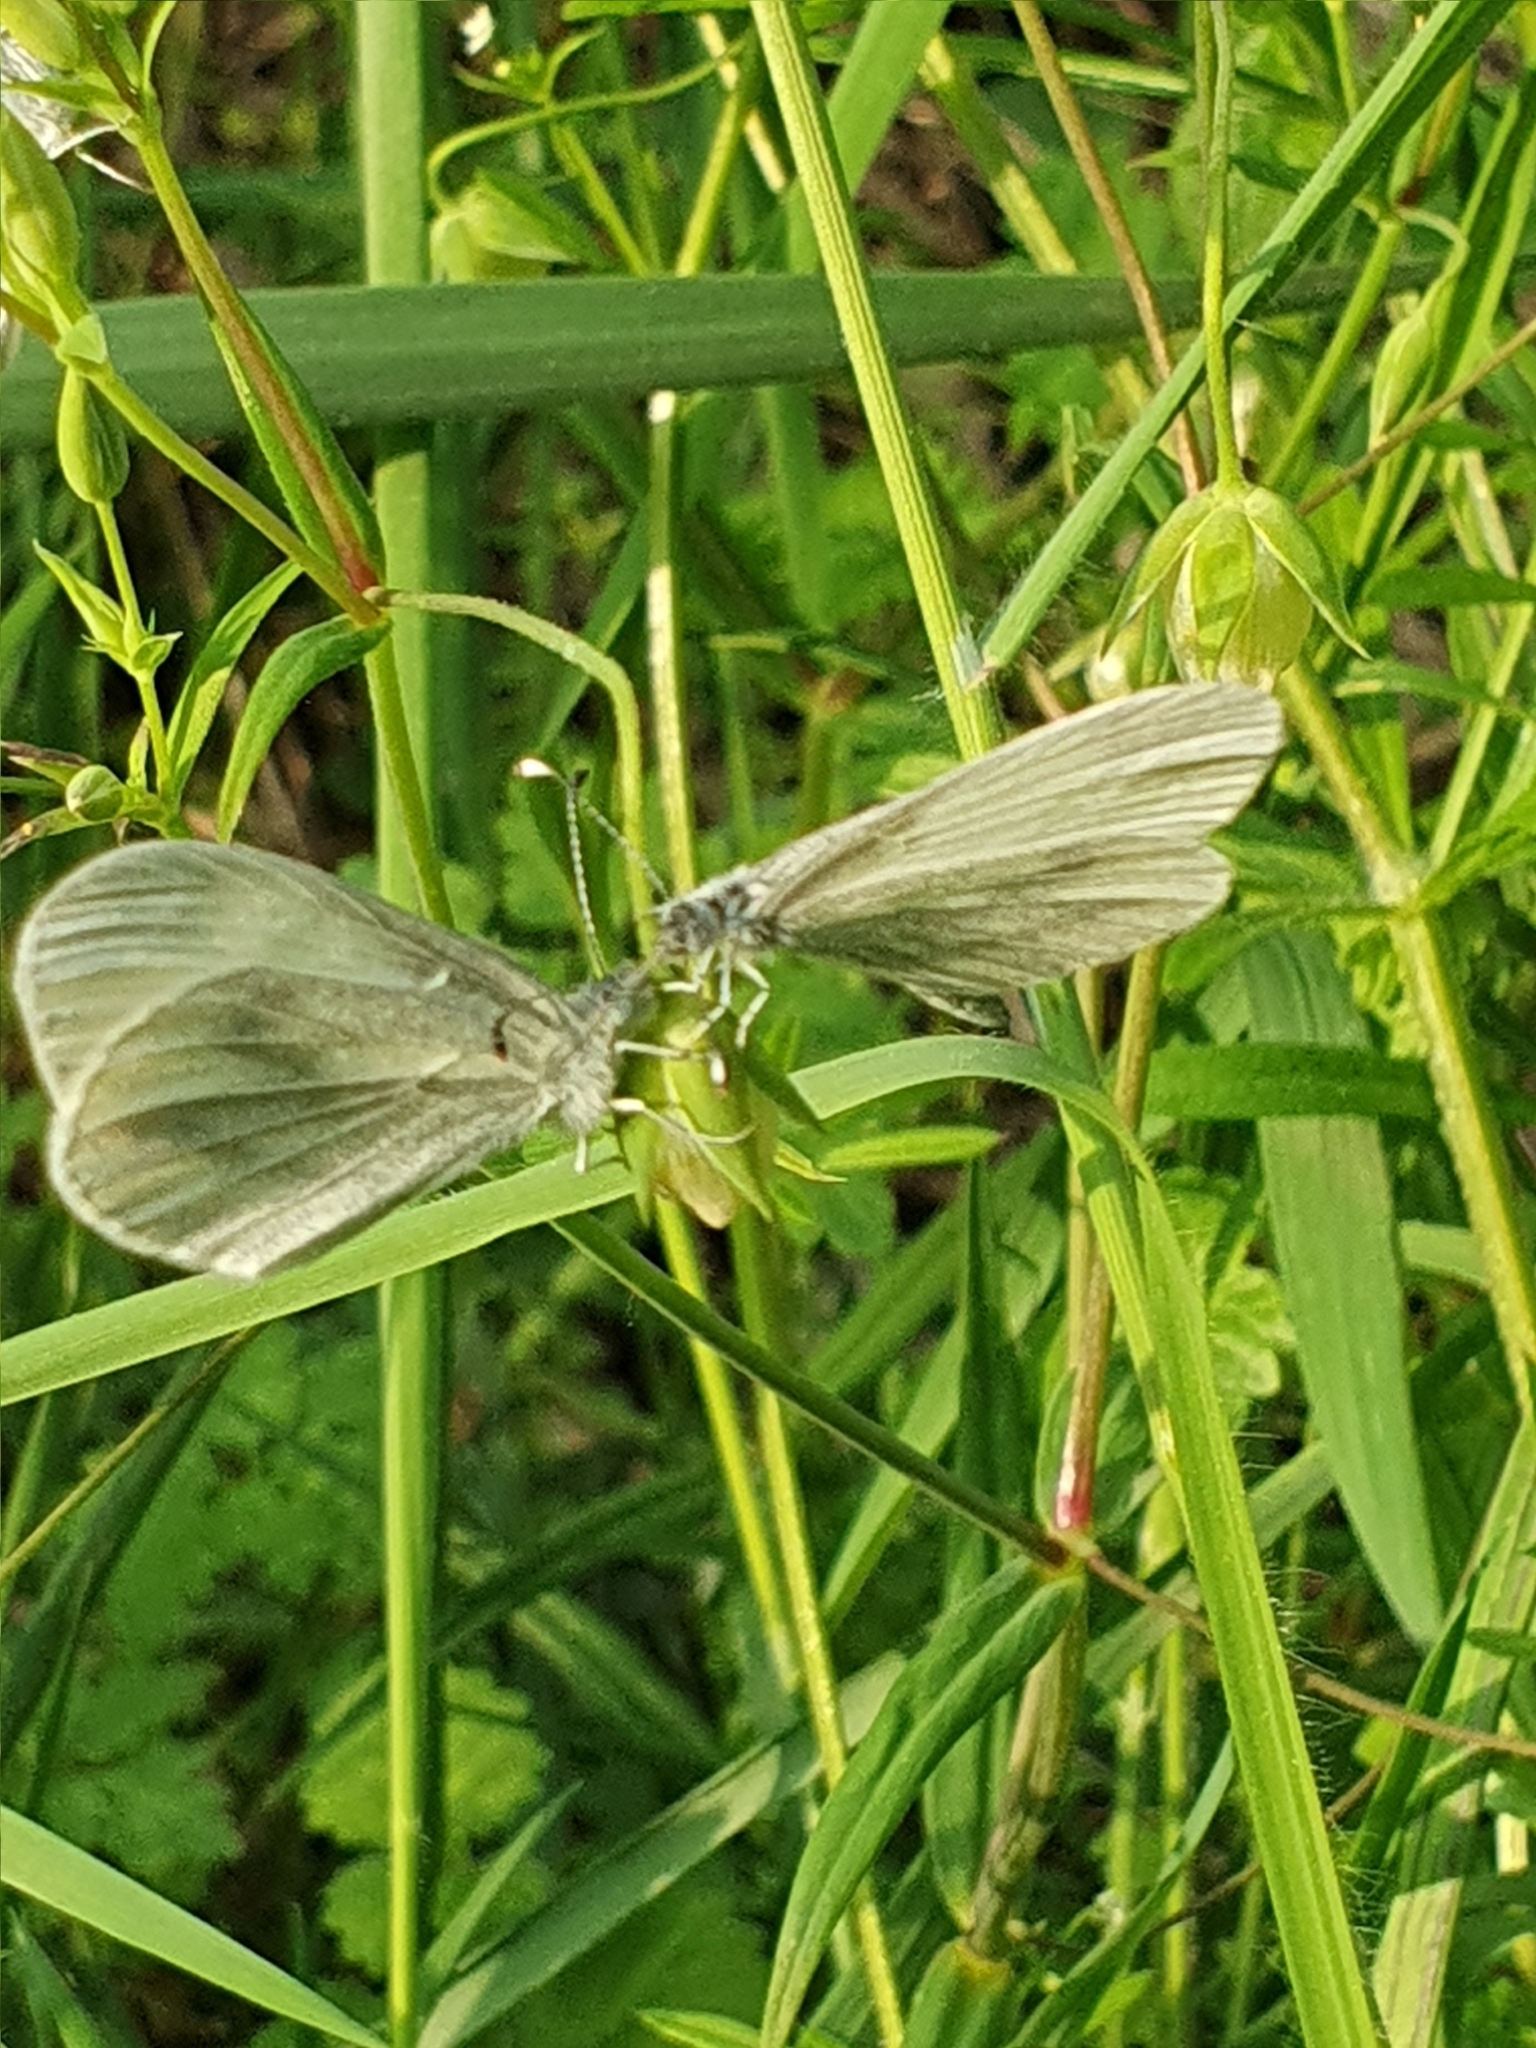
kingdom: Animalia
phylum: Arthropoda
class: Insecta
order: Lepidoptera
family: Pieridae
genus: Leptidea
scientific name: Leptidea sinapis
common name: Wood white
